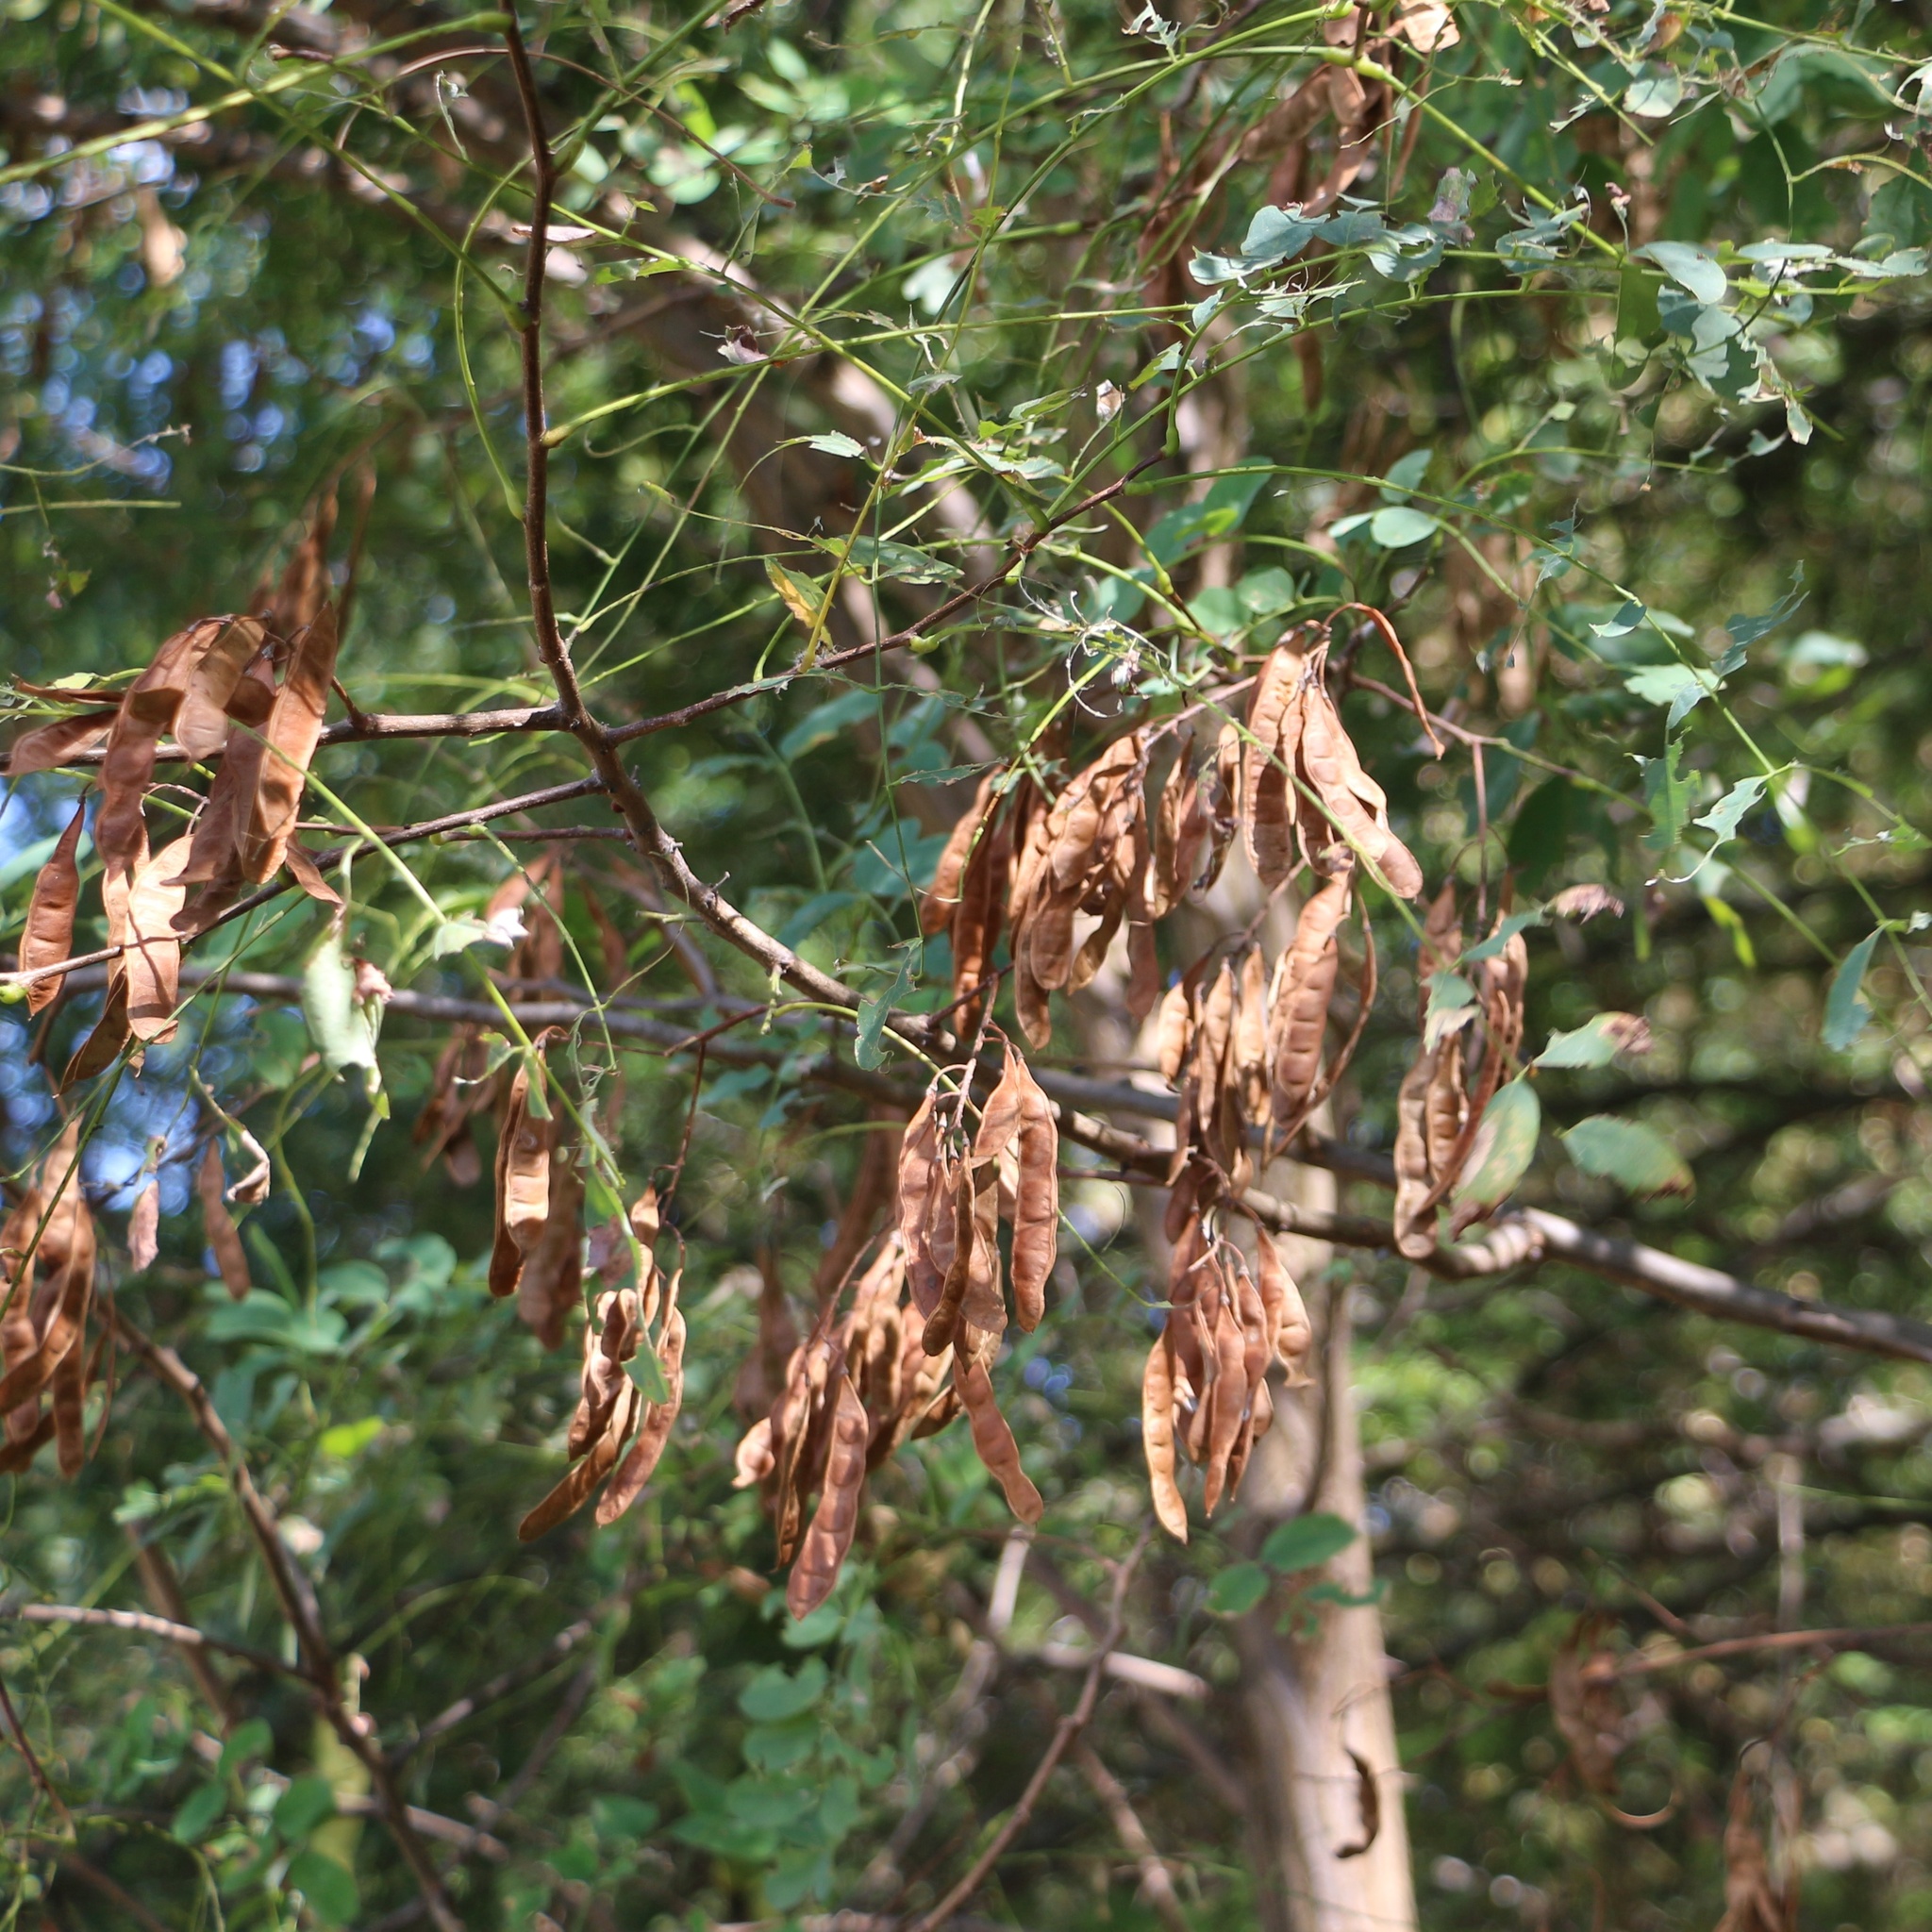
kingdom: Plantae
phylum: Tracheophyta
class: Magnoliopsida
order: Fabales
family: Fabaceae
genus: Robinia
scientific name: Robinia pseudoacacia
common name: Black locust
